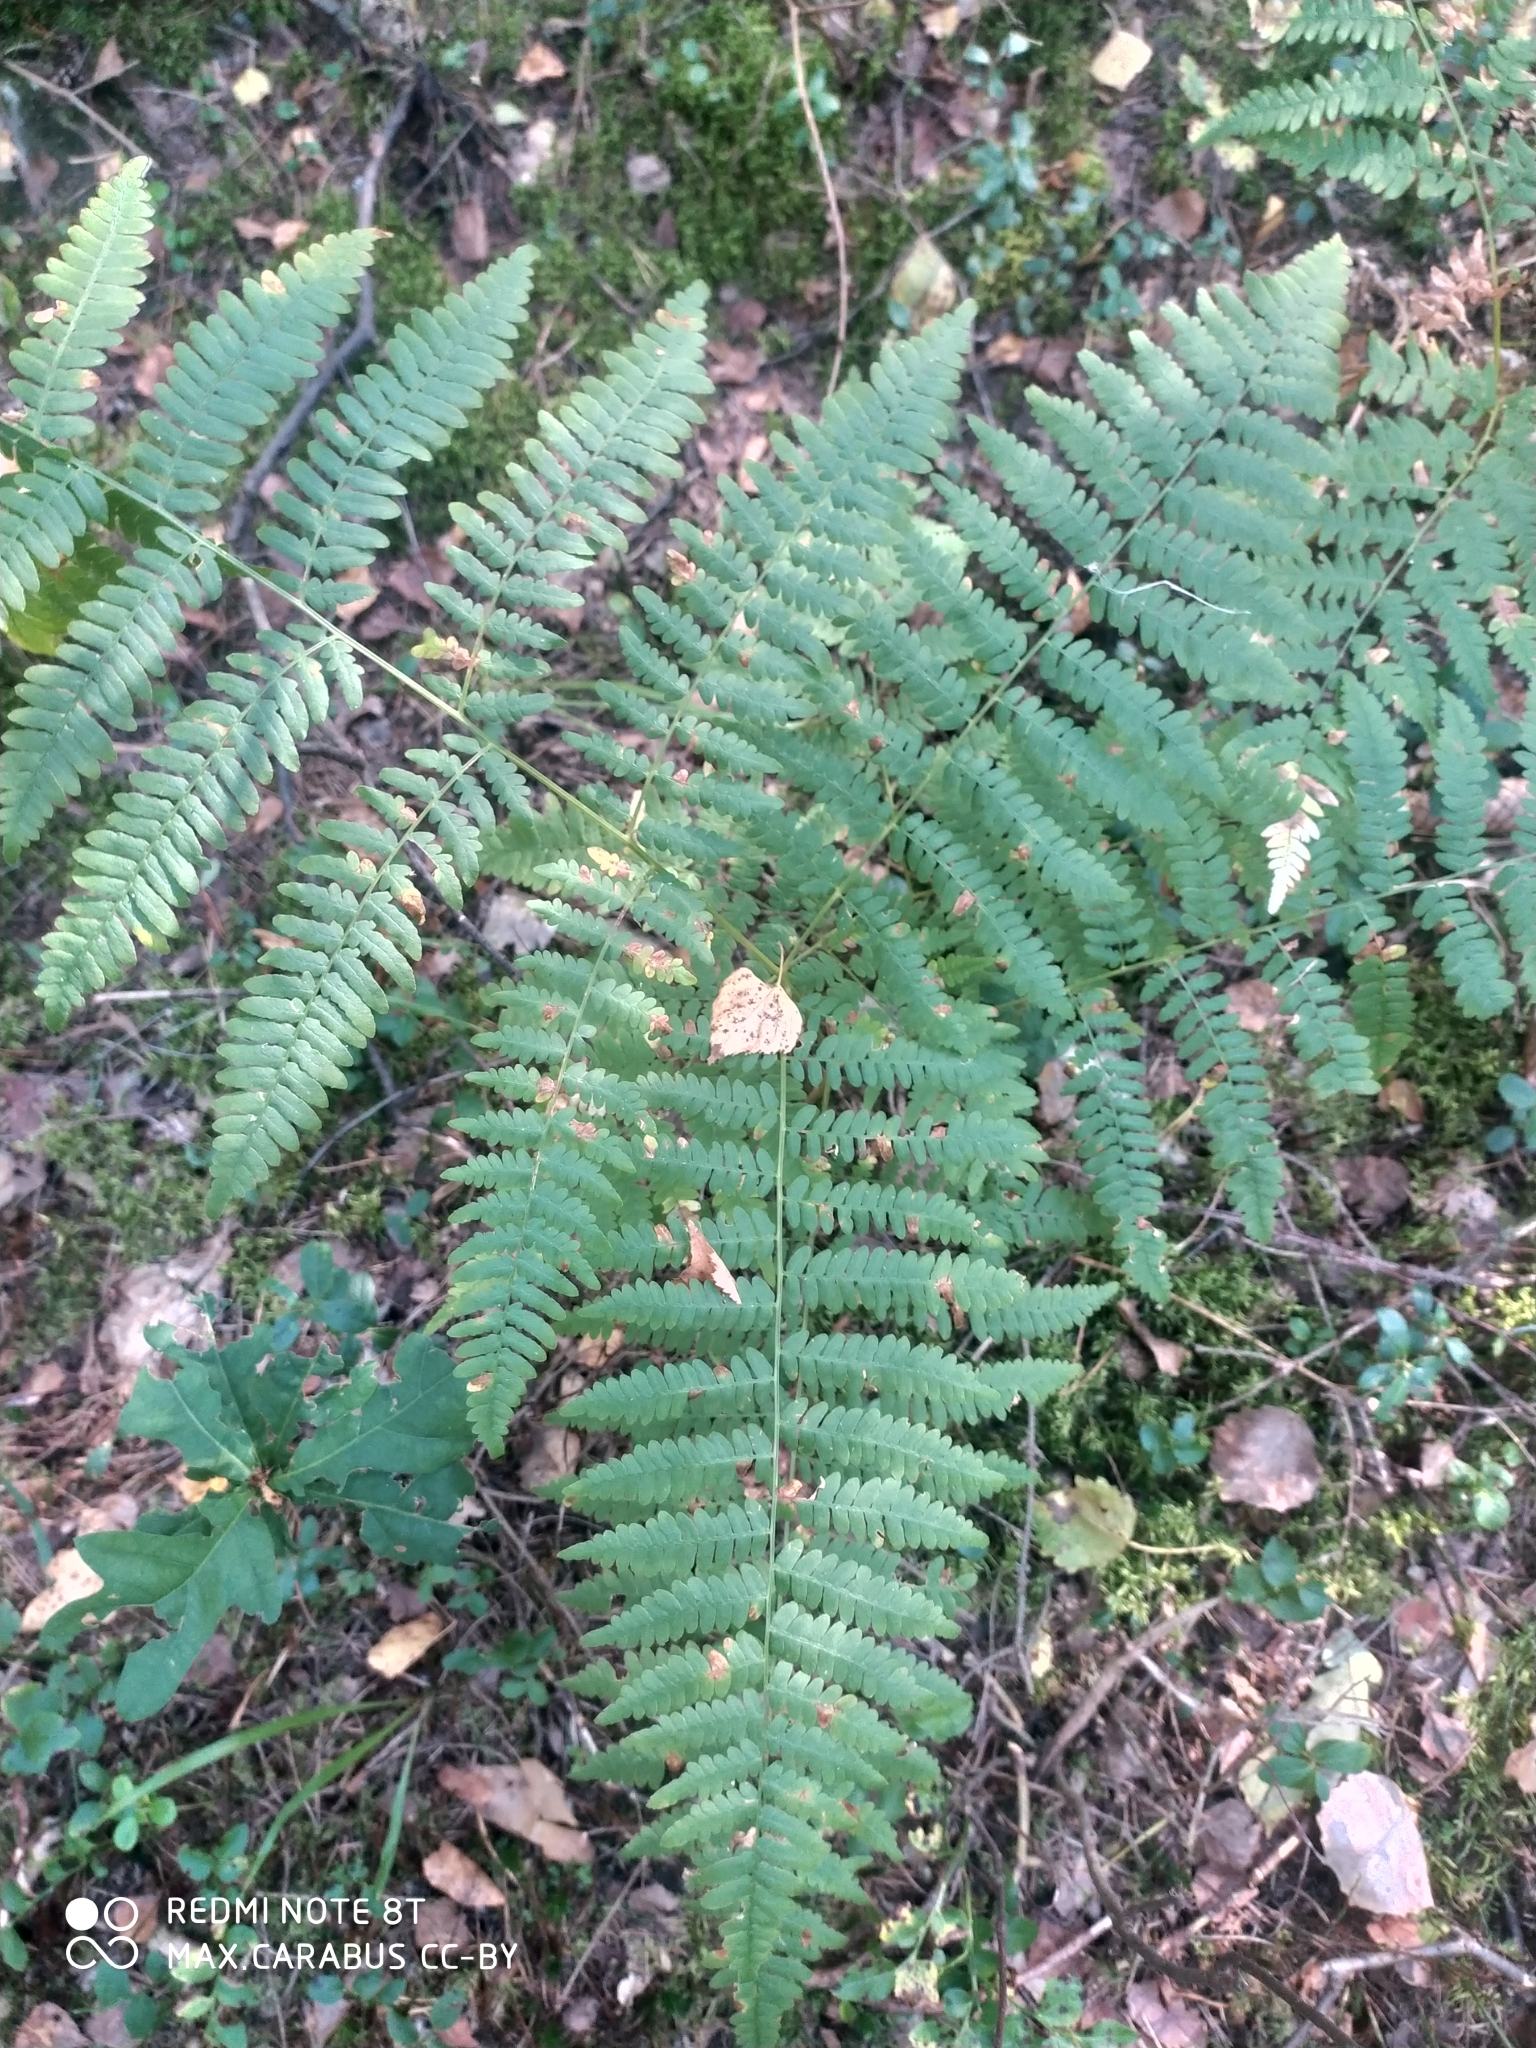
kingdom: Plantae
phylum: Tracheophyta
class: Polypodiopsida
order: Polypodiales
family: Dennstaedtiaceae
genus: Pteridium
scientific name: Pteridium aquilinum
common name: Bracken
